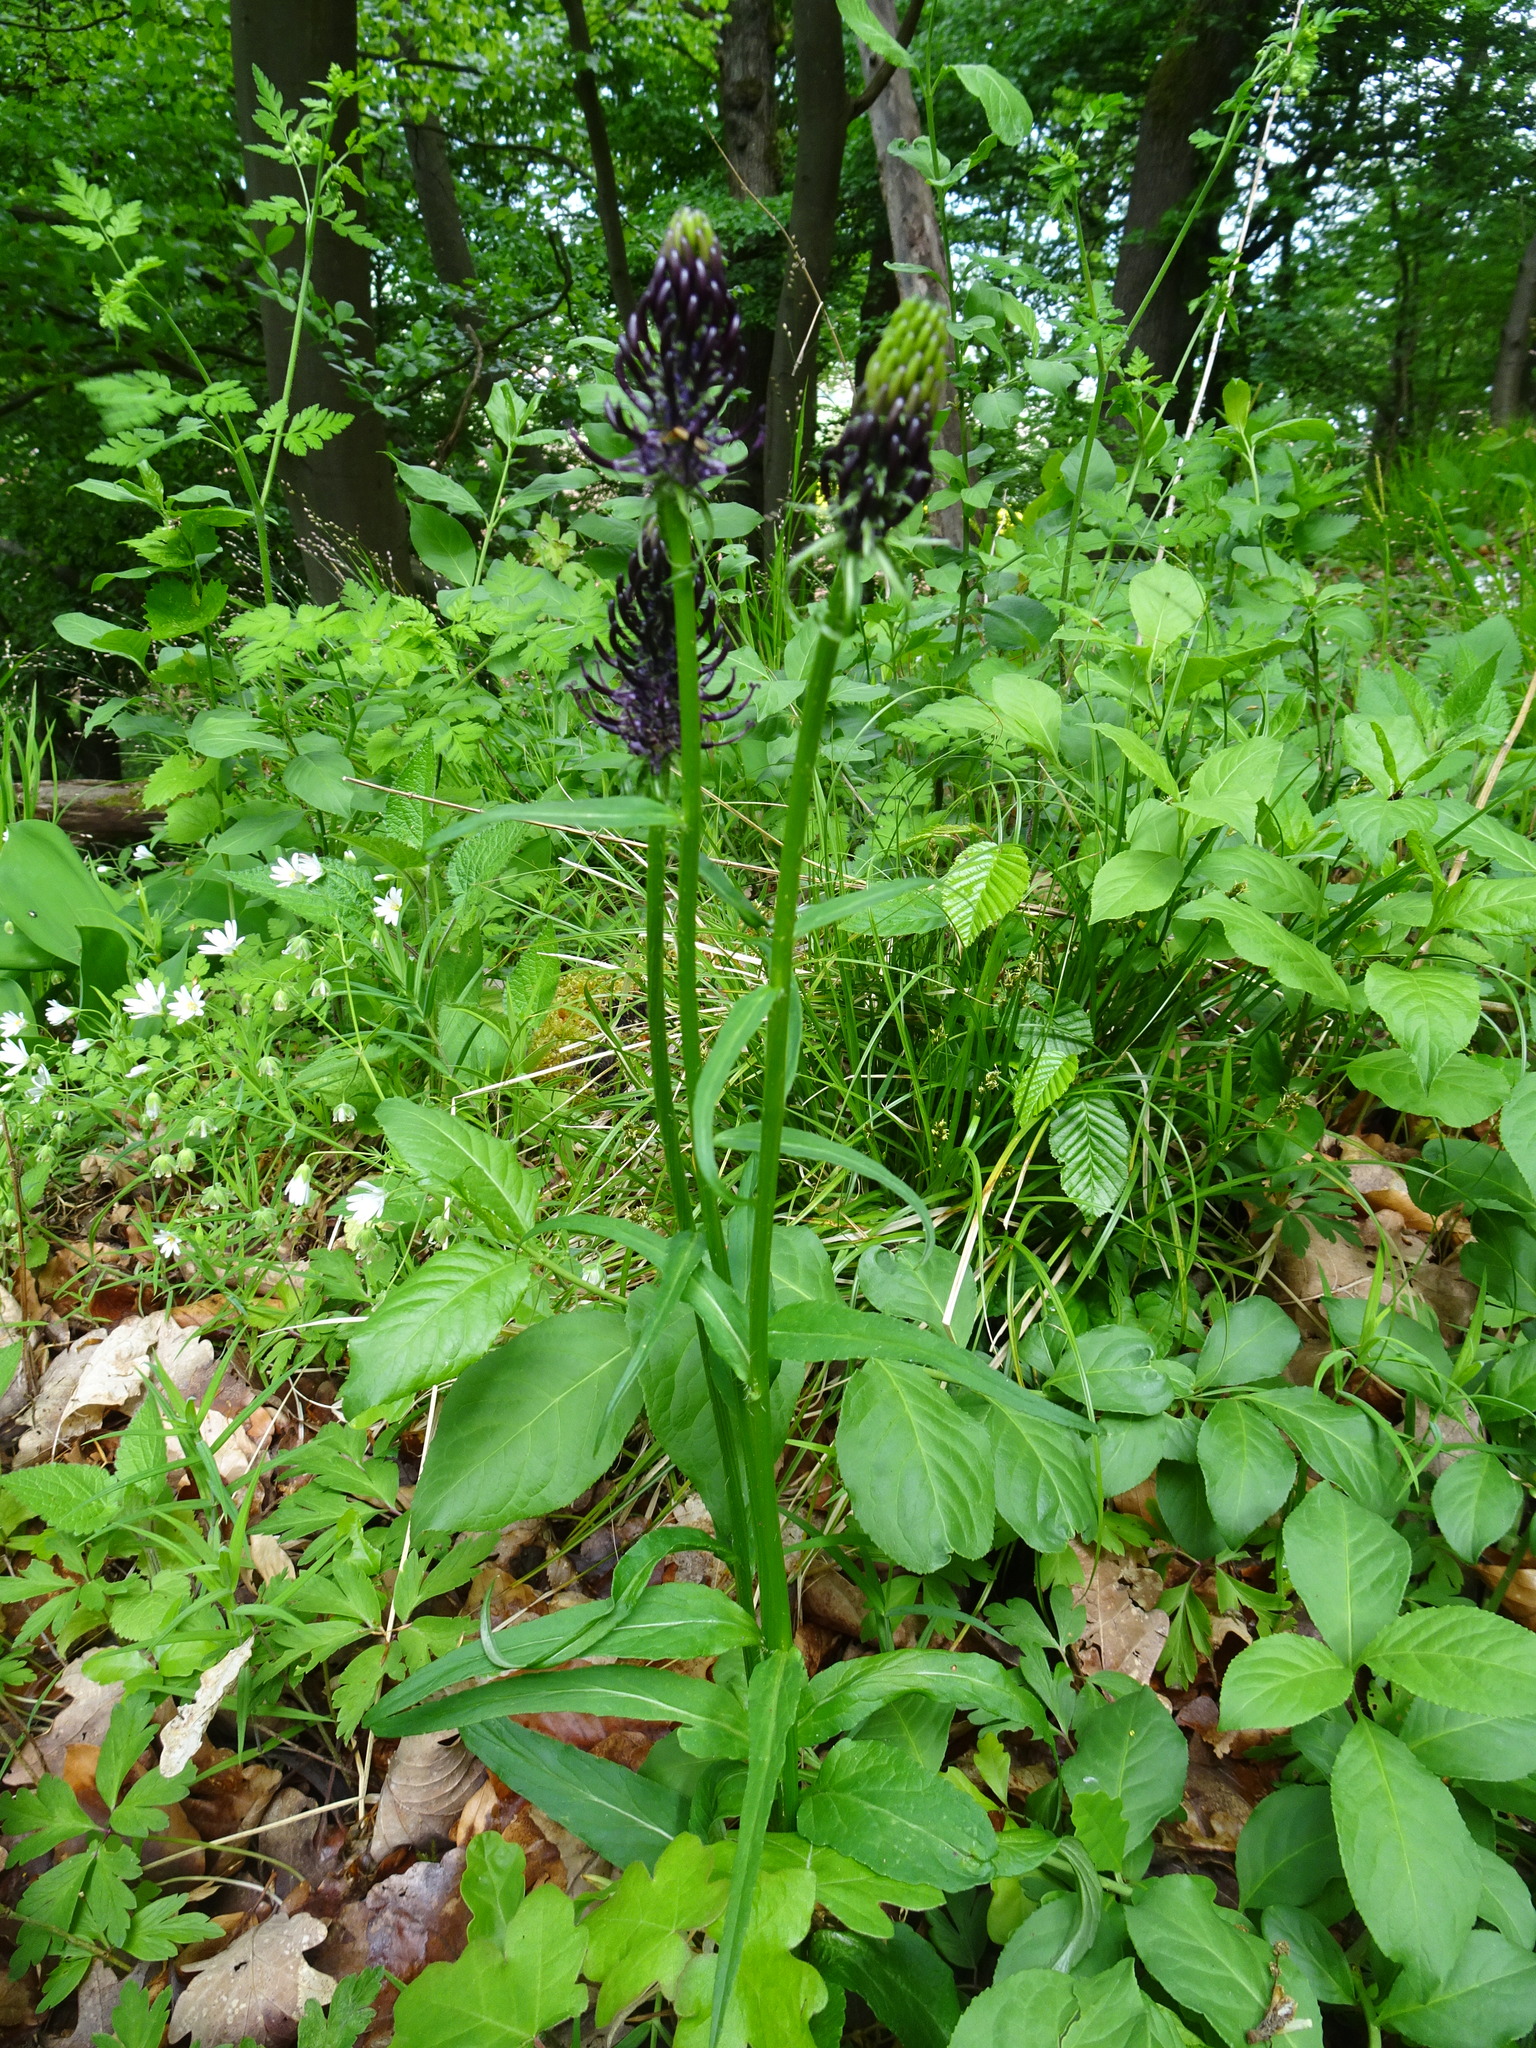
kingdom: Plantae
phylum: Tracheophyta
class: Magnoliopsida
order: Asterales
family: Campanulaceae
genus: Phyteuma
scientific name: Phyteuma nigrum
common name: Black rampion
